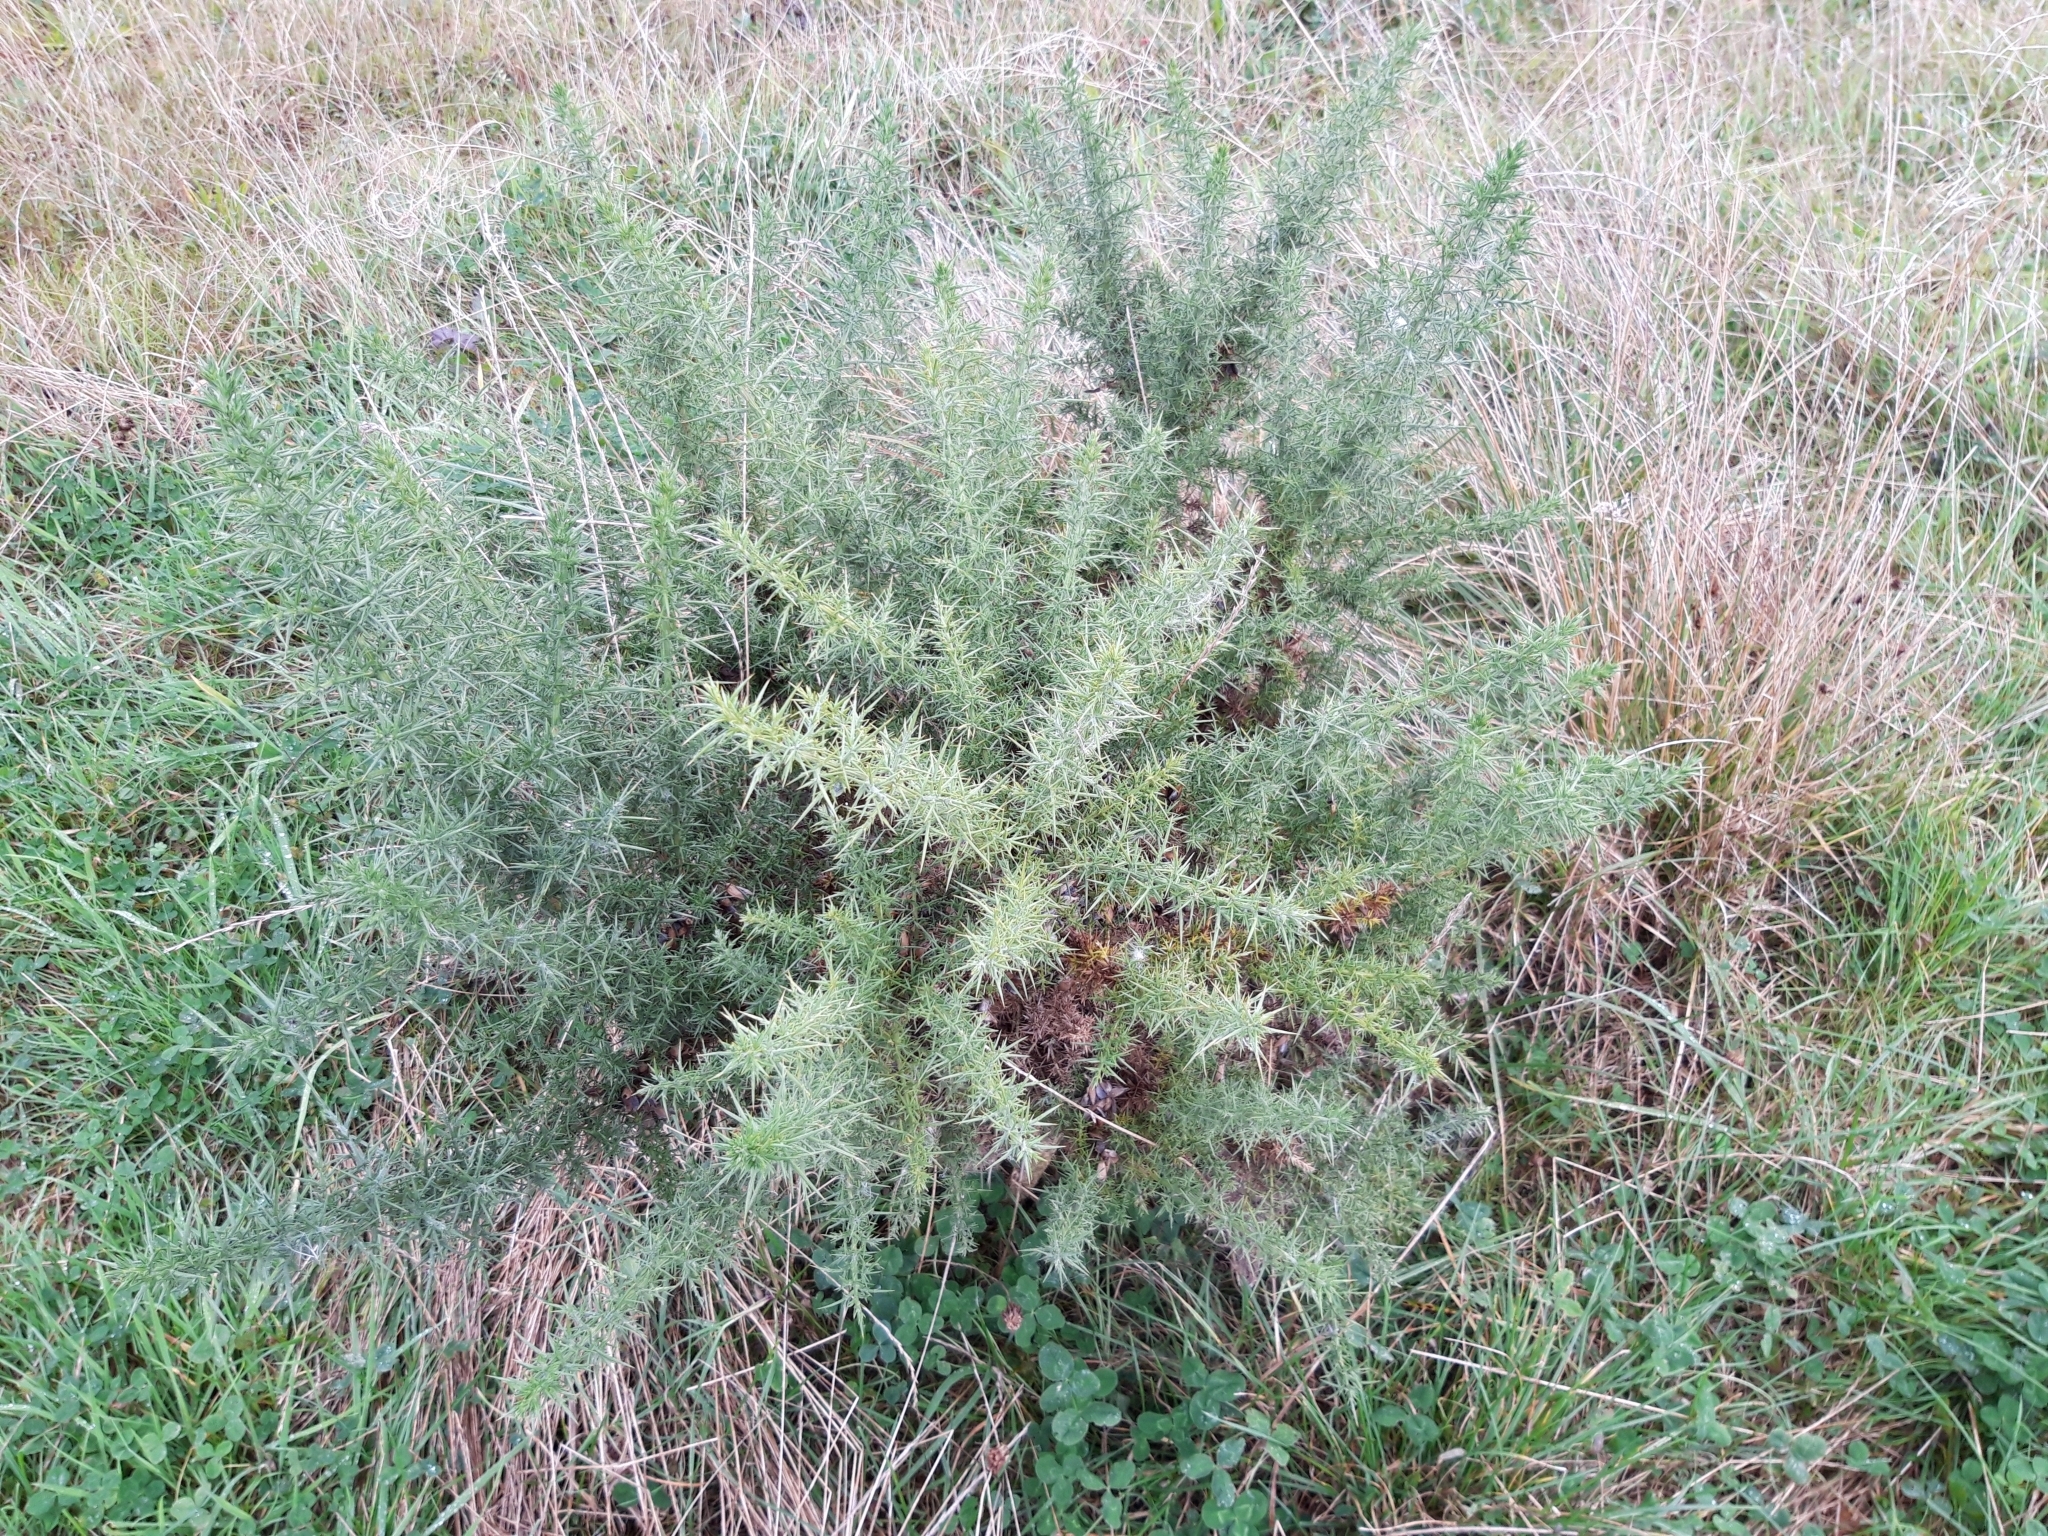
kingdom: Plantae
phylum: Tracheophyta
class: Magnoliopsida
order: Fabales
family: Fabaceae
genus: Ulex
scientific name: Ulex europaeus
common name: Common gorse
